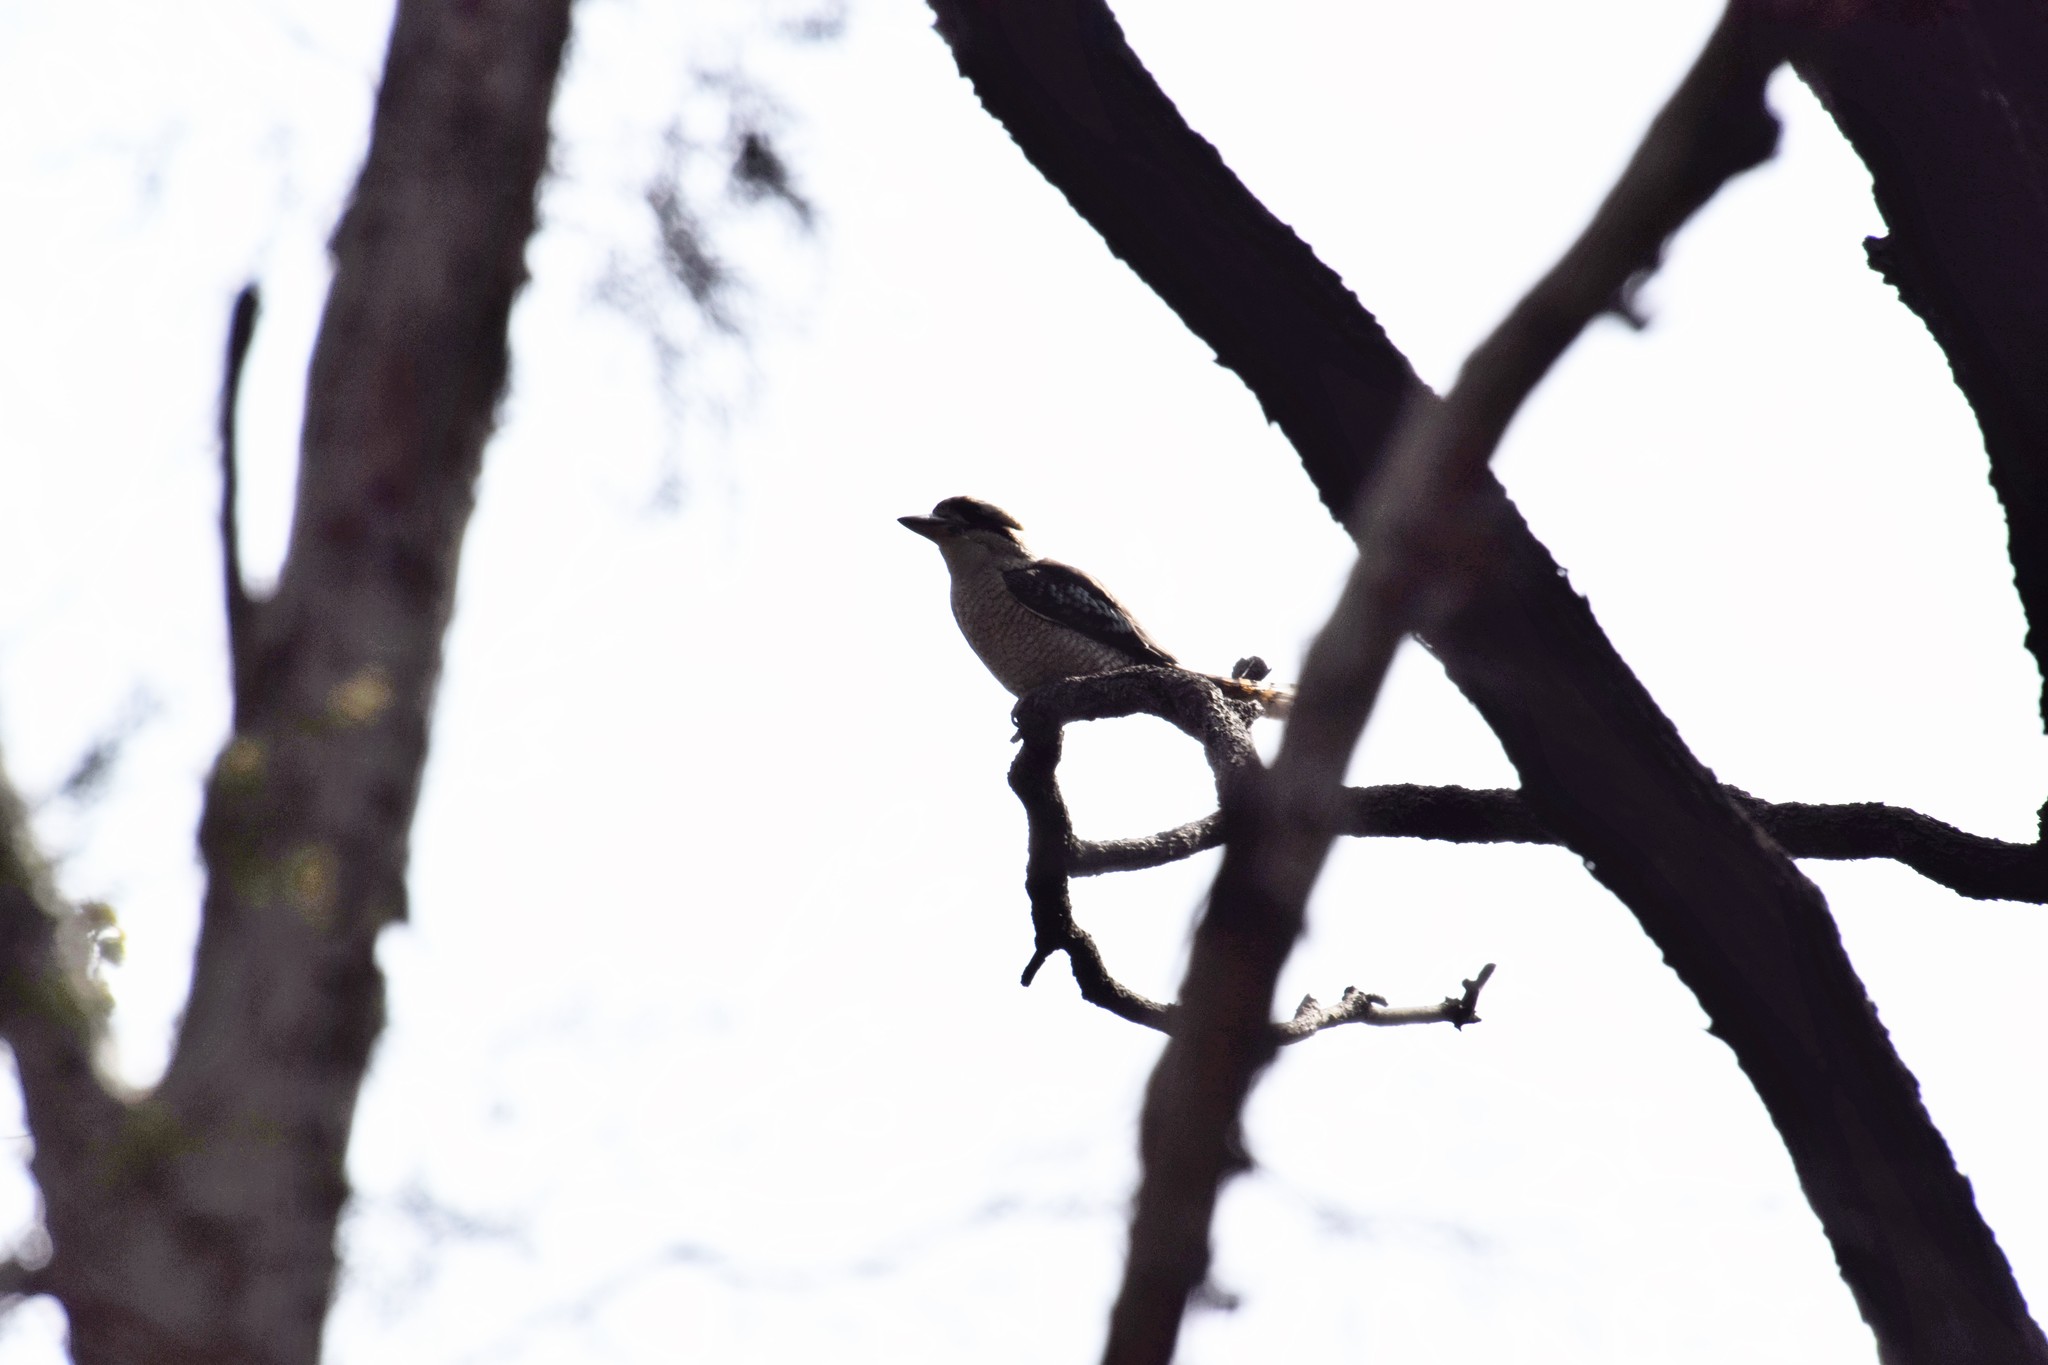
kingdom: Animalia
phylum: Chordata
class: Aves
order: Coraciiformes
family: Alcedinidae
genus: Dacelo
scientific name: Dacelo novaeguineae
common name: Laughing kookaburra
